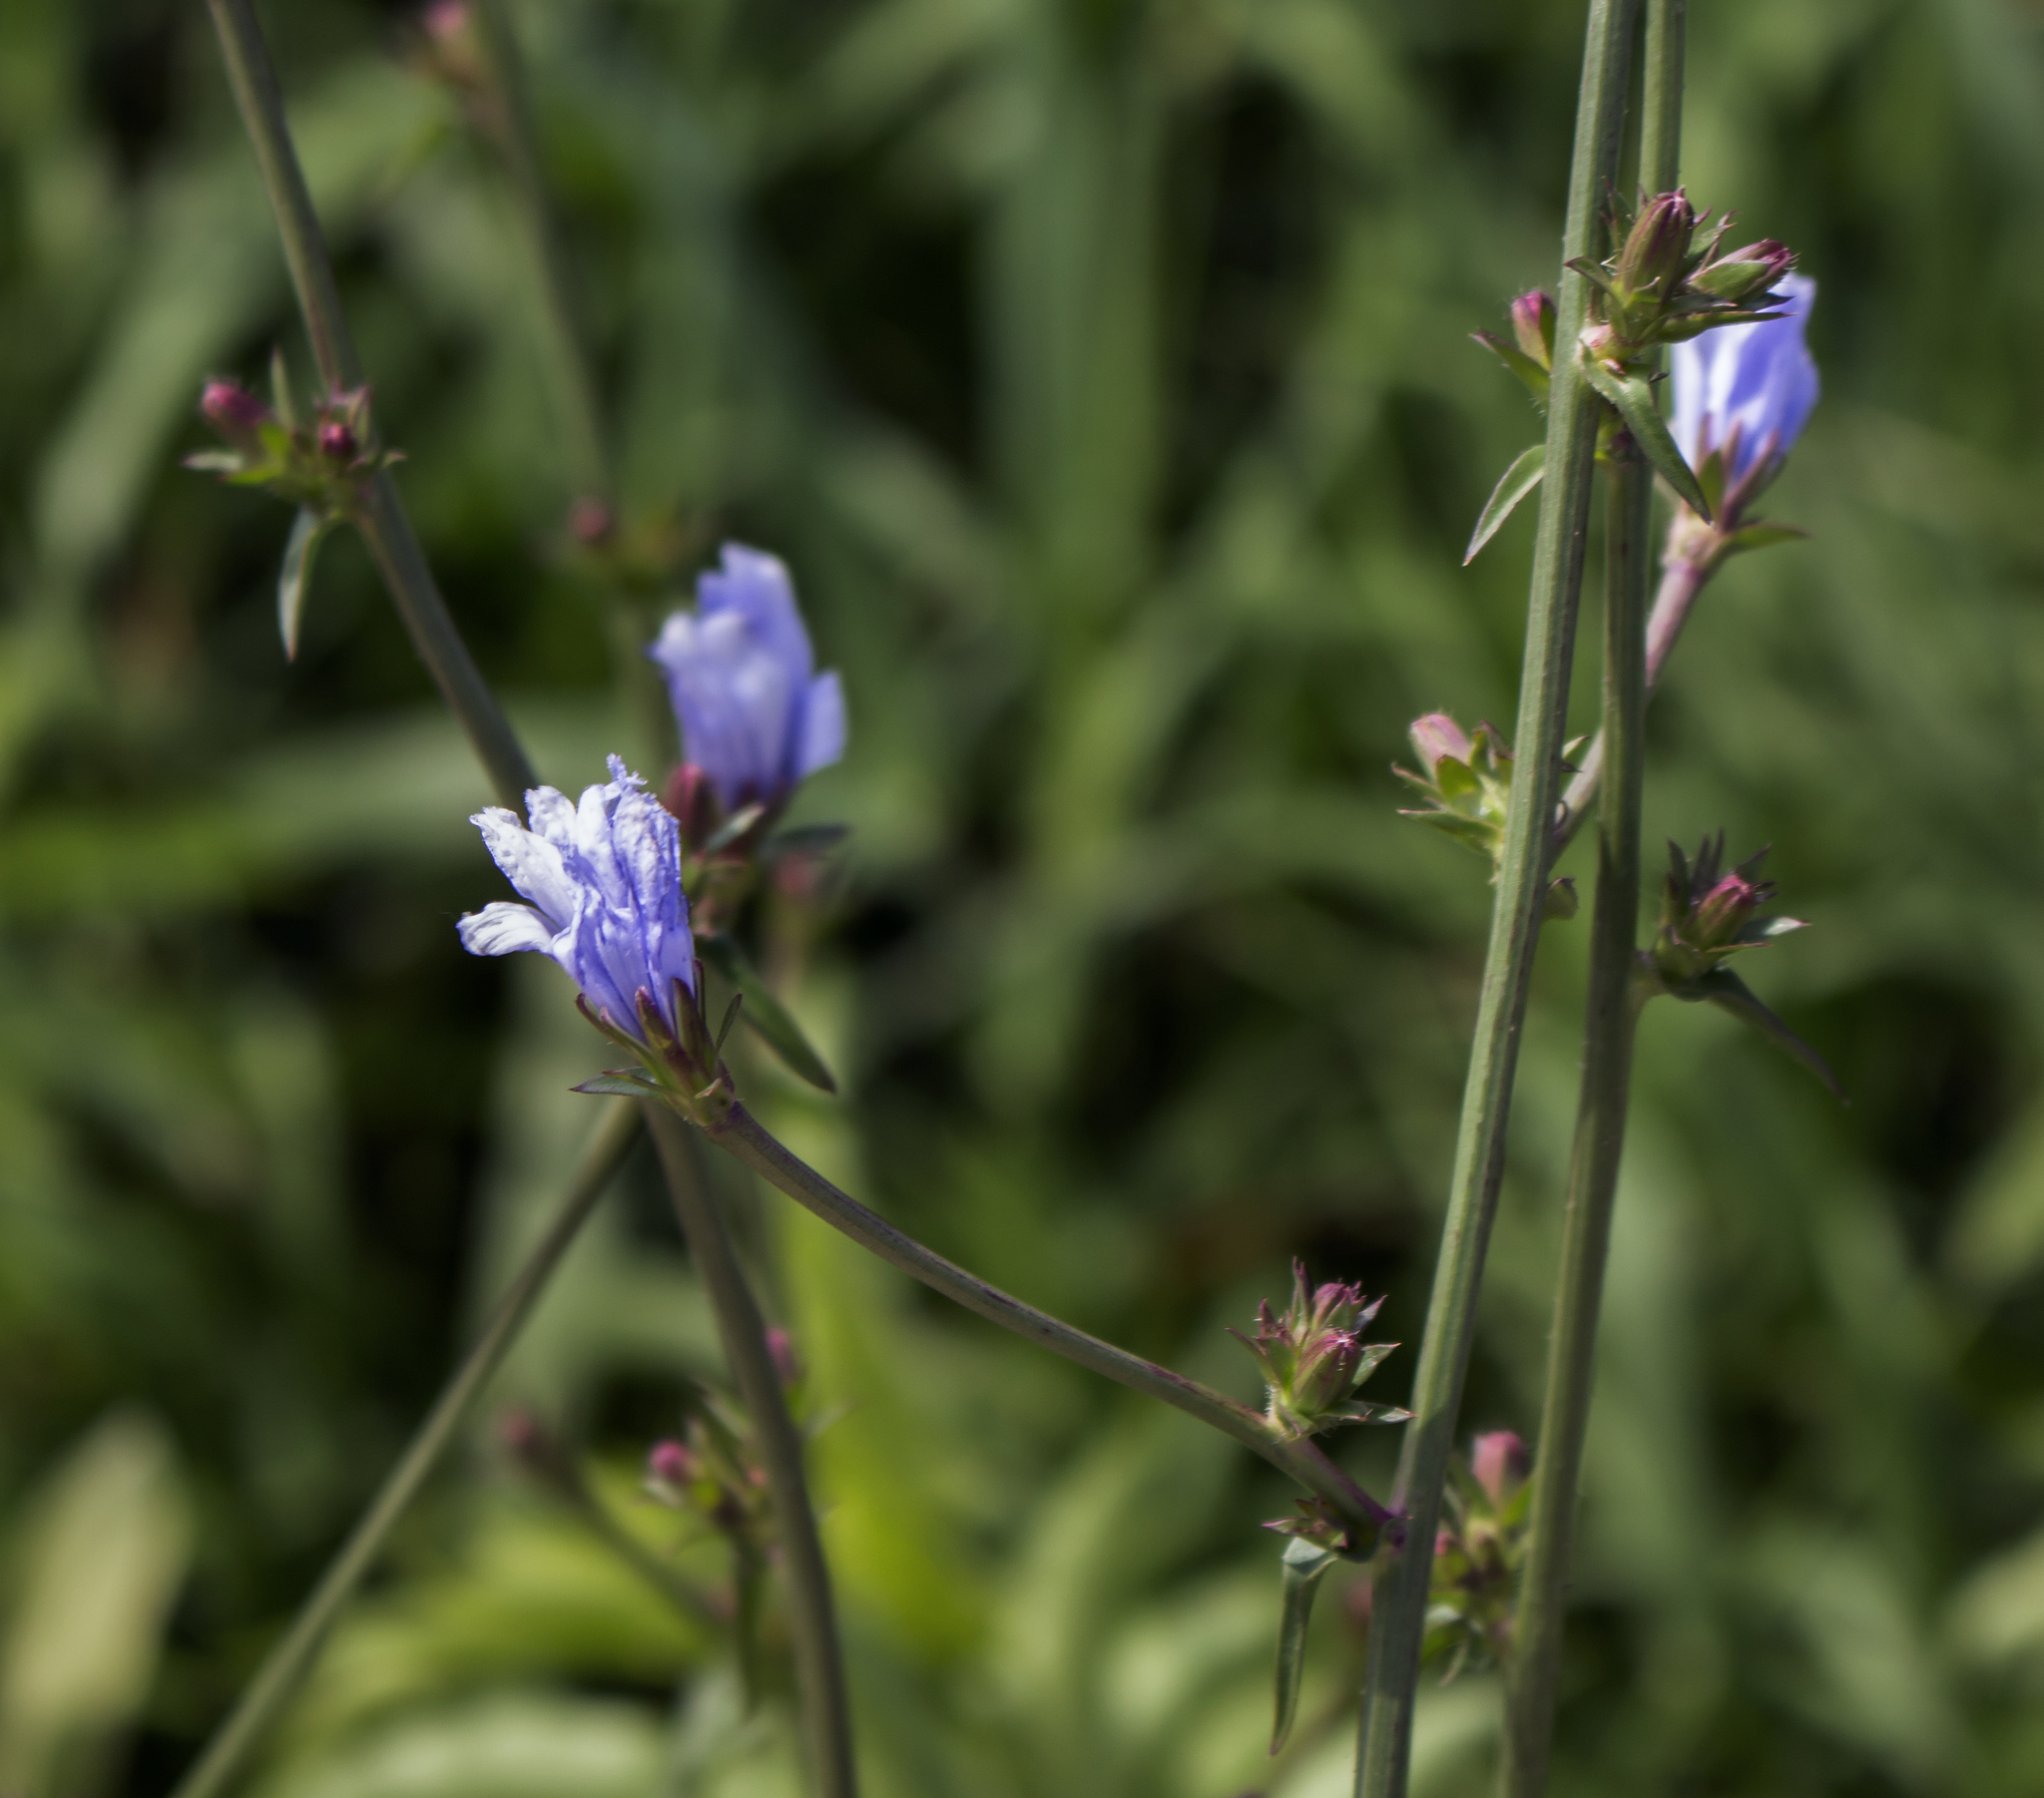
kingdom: Plantae
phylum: Tracheophyta
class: Magnoliopsida
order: Asterales
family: Asteraceae
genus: Cichorium
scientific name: Cichorium intybus
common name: Chicory
